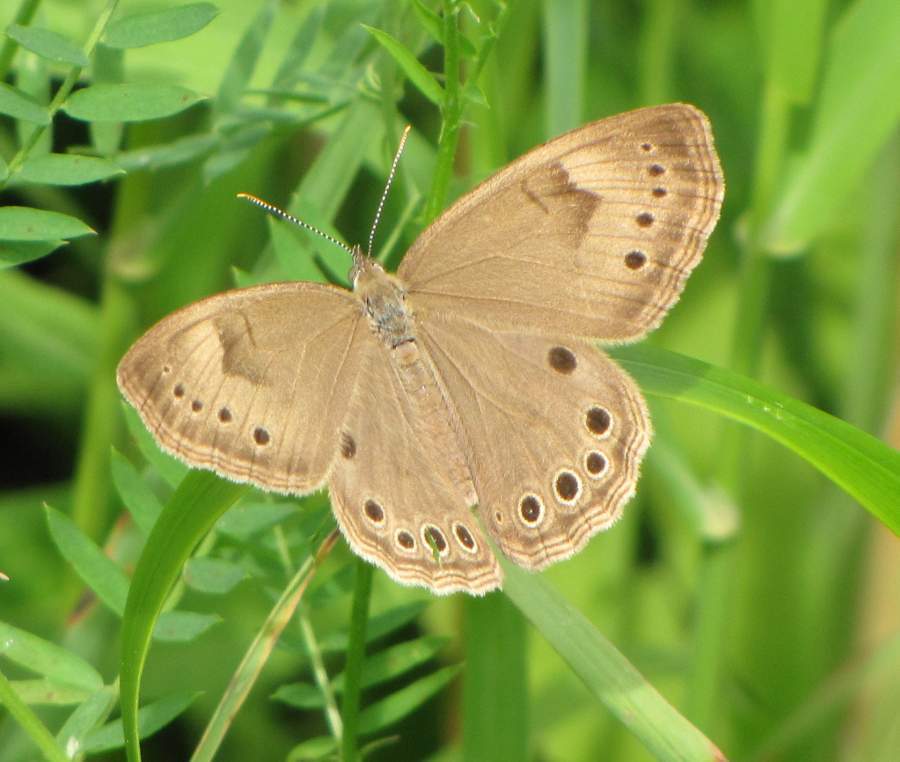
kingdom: Animalia
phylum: Arthropoda
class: Insecta
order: Lepidoptera
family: Nymphalidae
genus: Lethe
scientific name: Lethe eurydice
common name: Eyed brown
